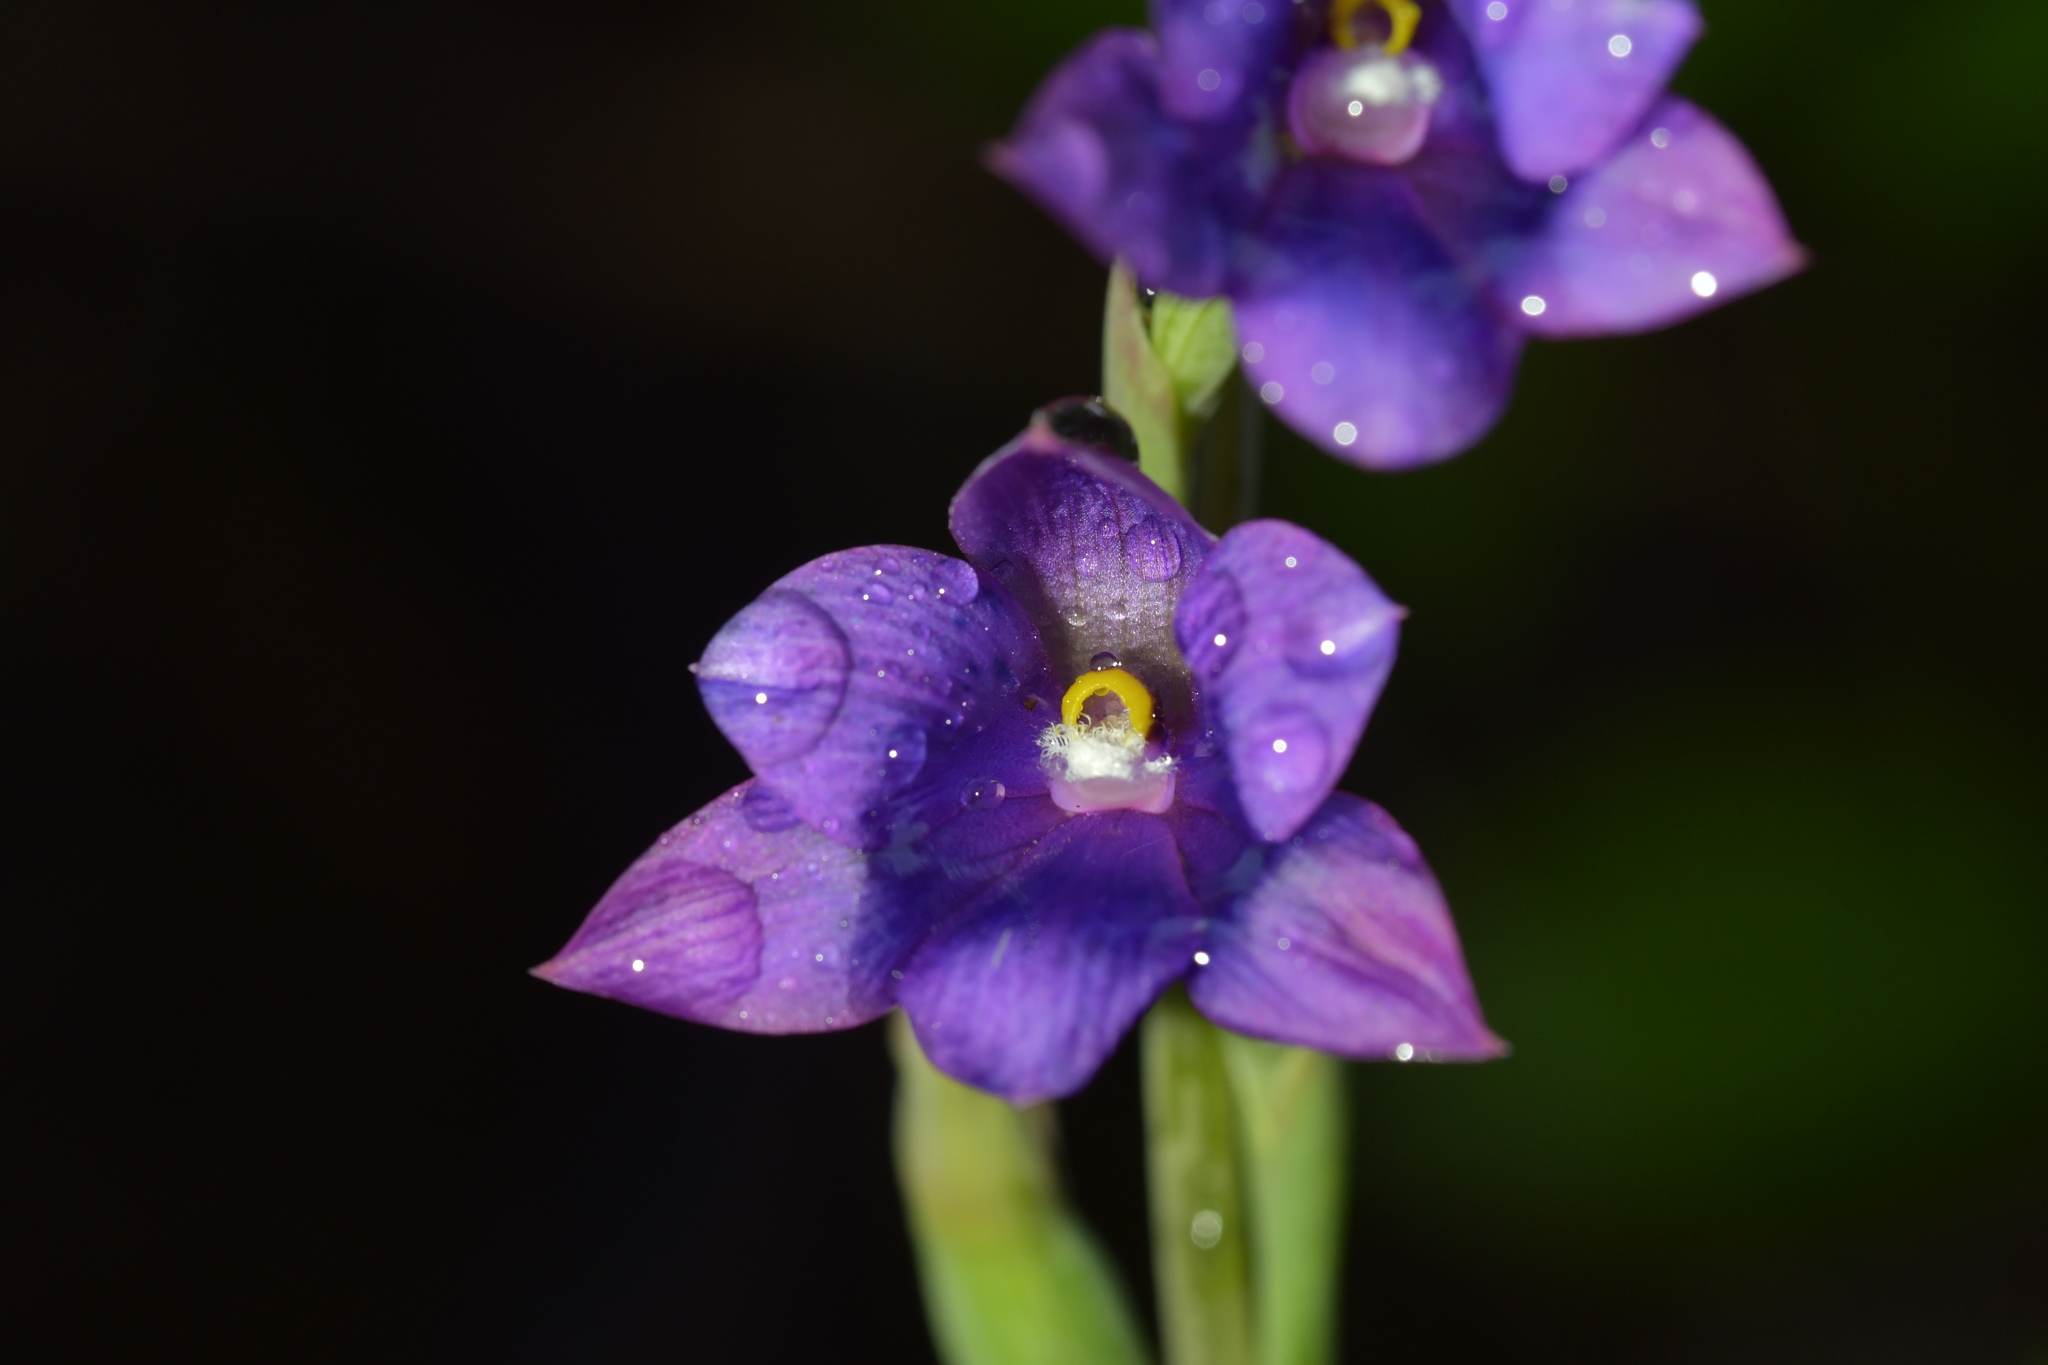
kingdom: Plantae
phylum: Tracheophyta
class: Liliopsida
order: Asparagales
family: Orchidaceae
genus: Thelymitra
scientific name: Thelymitra nervosa
